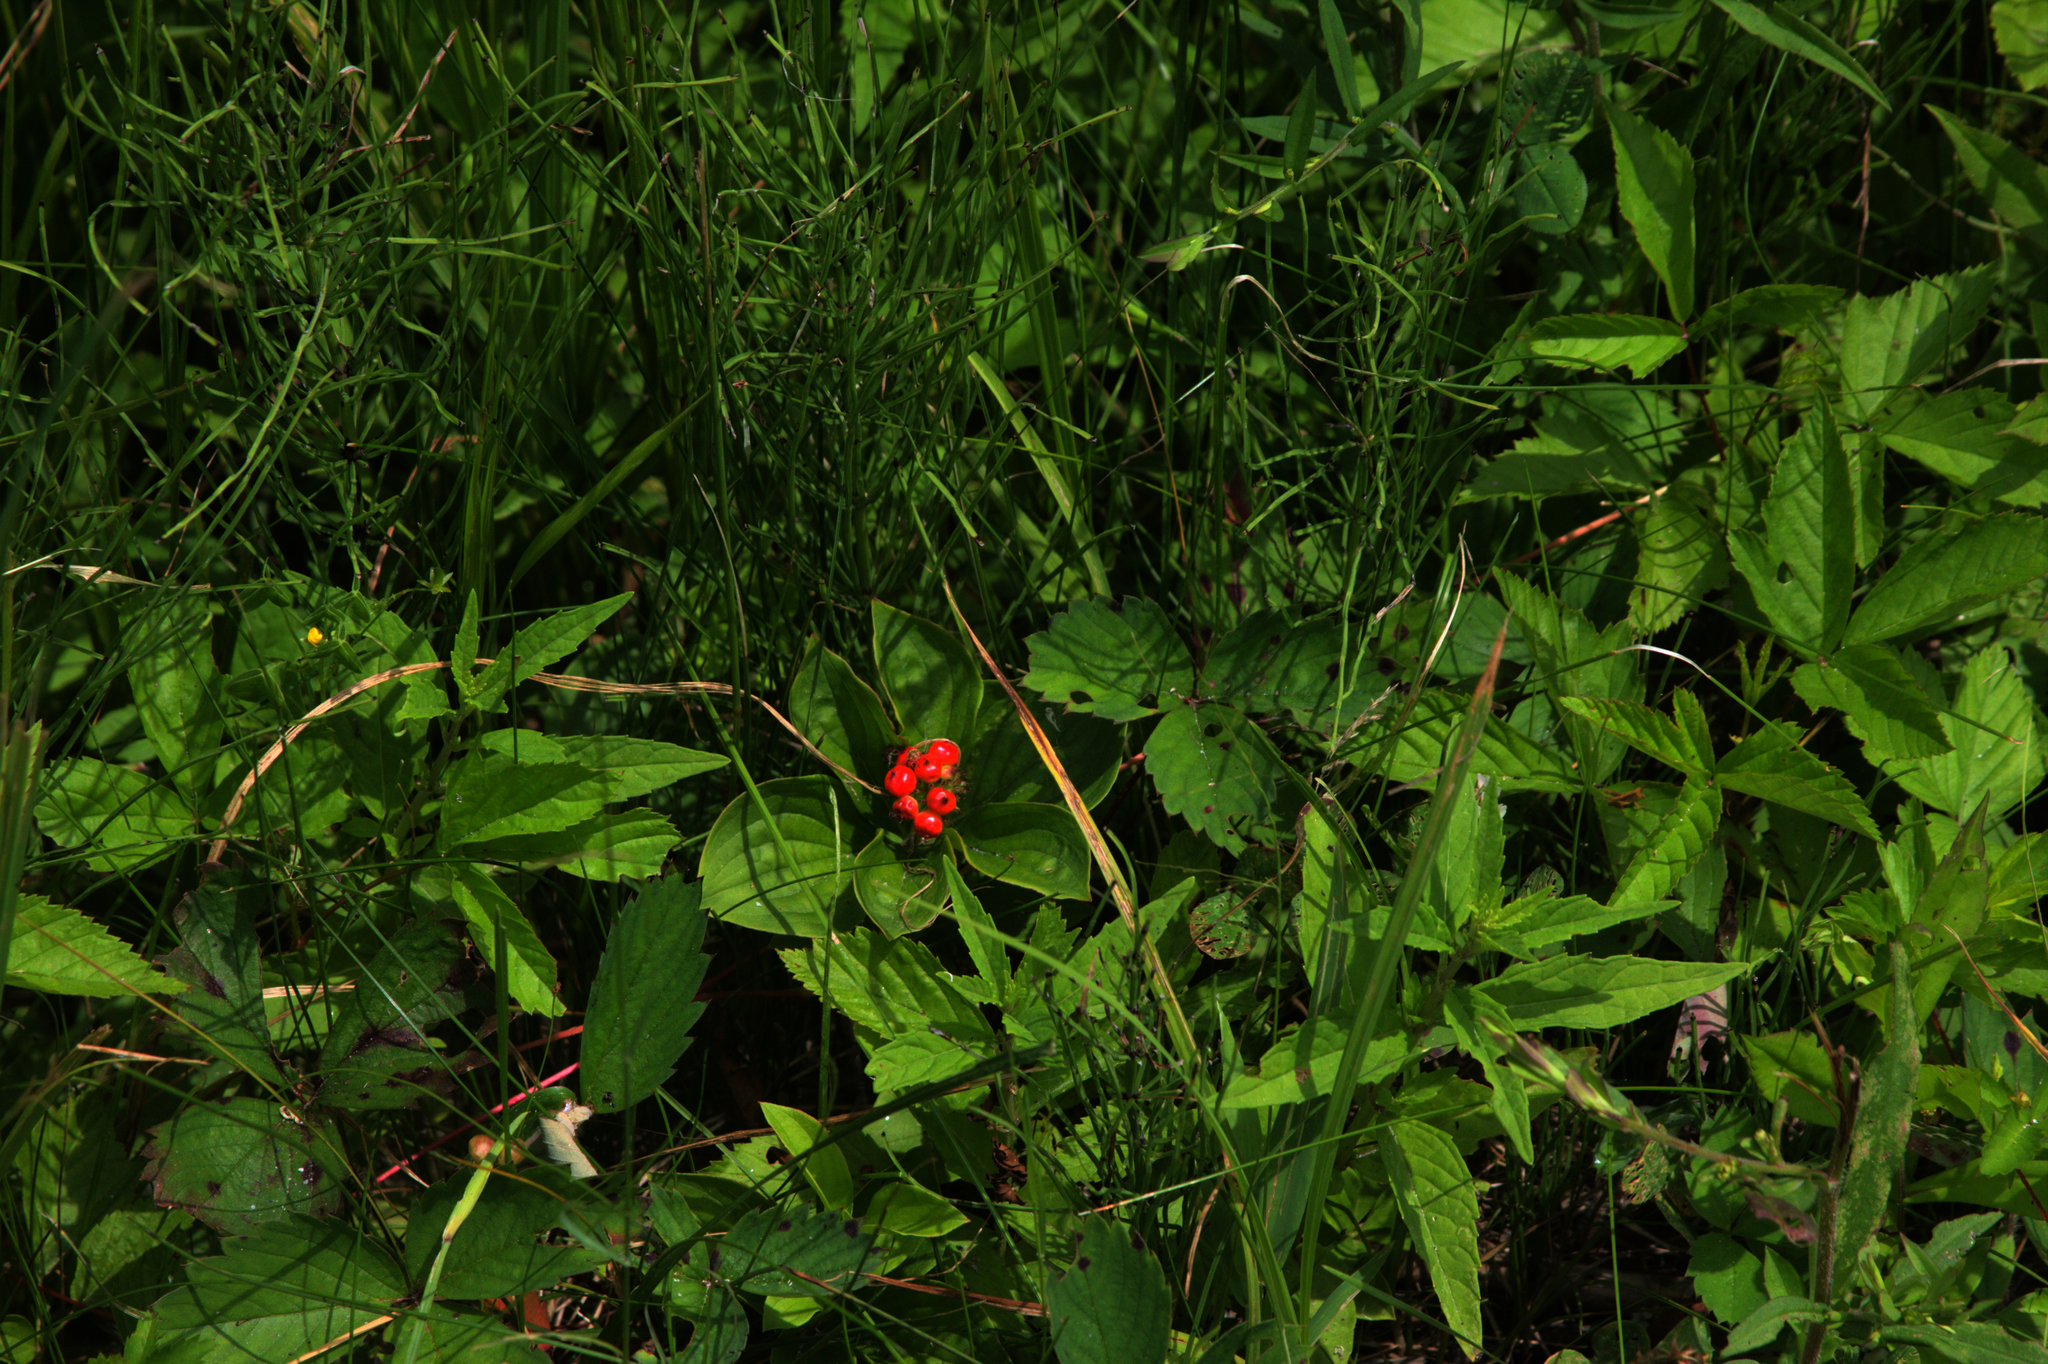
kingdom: Plantae
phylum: Tracheophyta
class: Magnoliopsida
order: Cornales
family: Cornaceae
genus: Cornus
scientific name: Cornus canadensis
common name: Creeping dogwood
